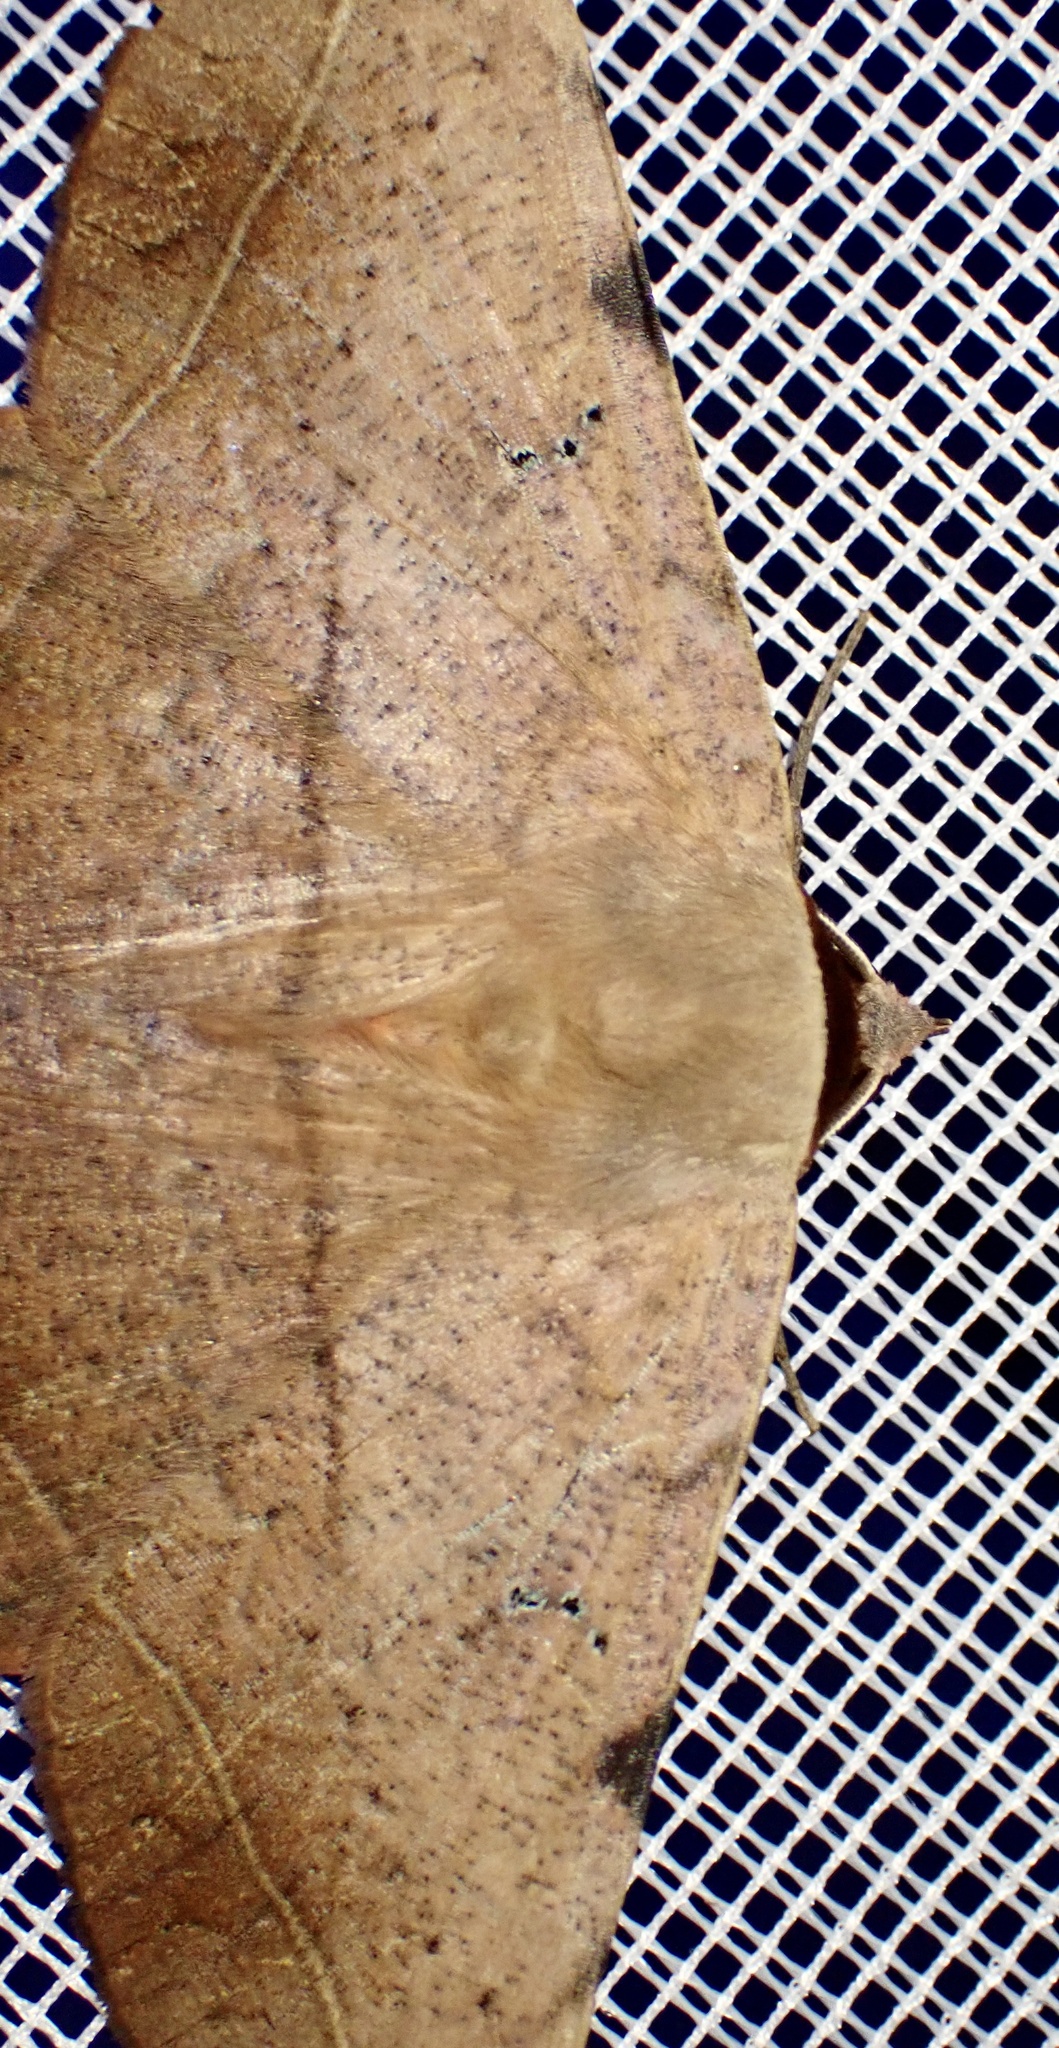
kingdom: Animalia
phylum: Arthropoda
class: Insecta
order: Lepidoptera
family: Erebidae
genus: Hypopyra
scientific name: Hypopyra capensis
